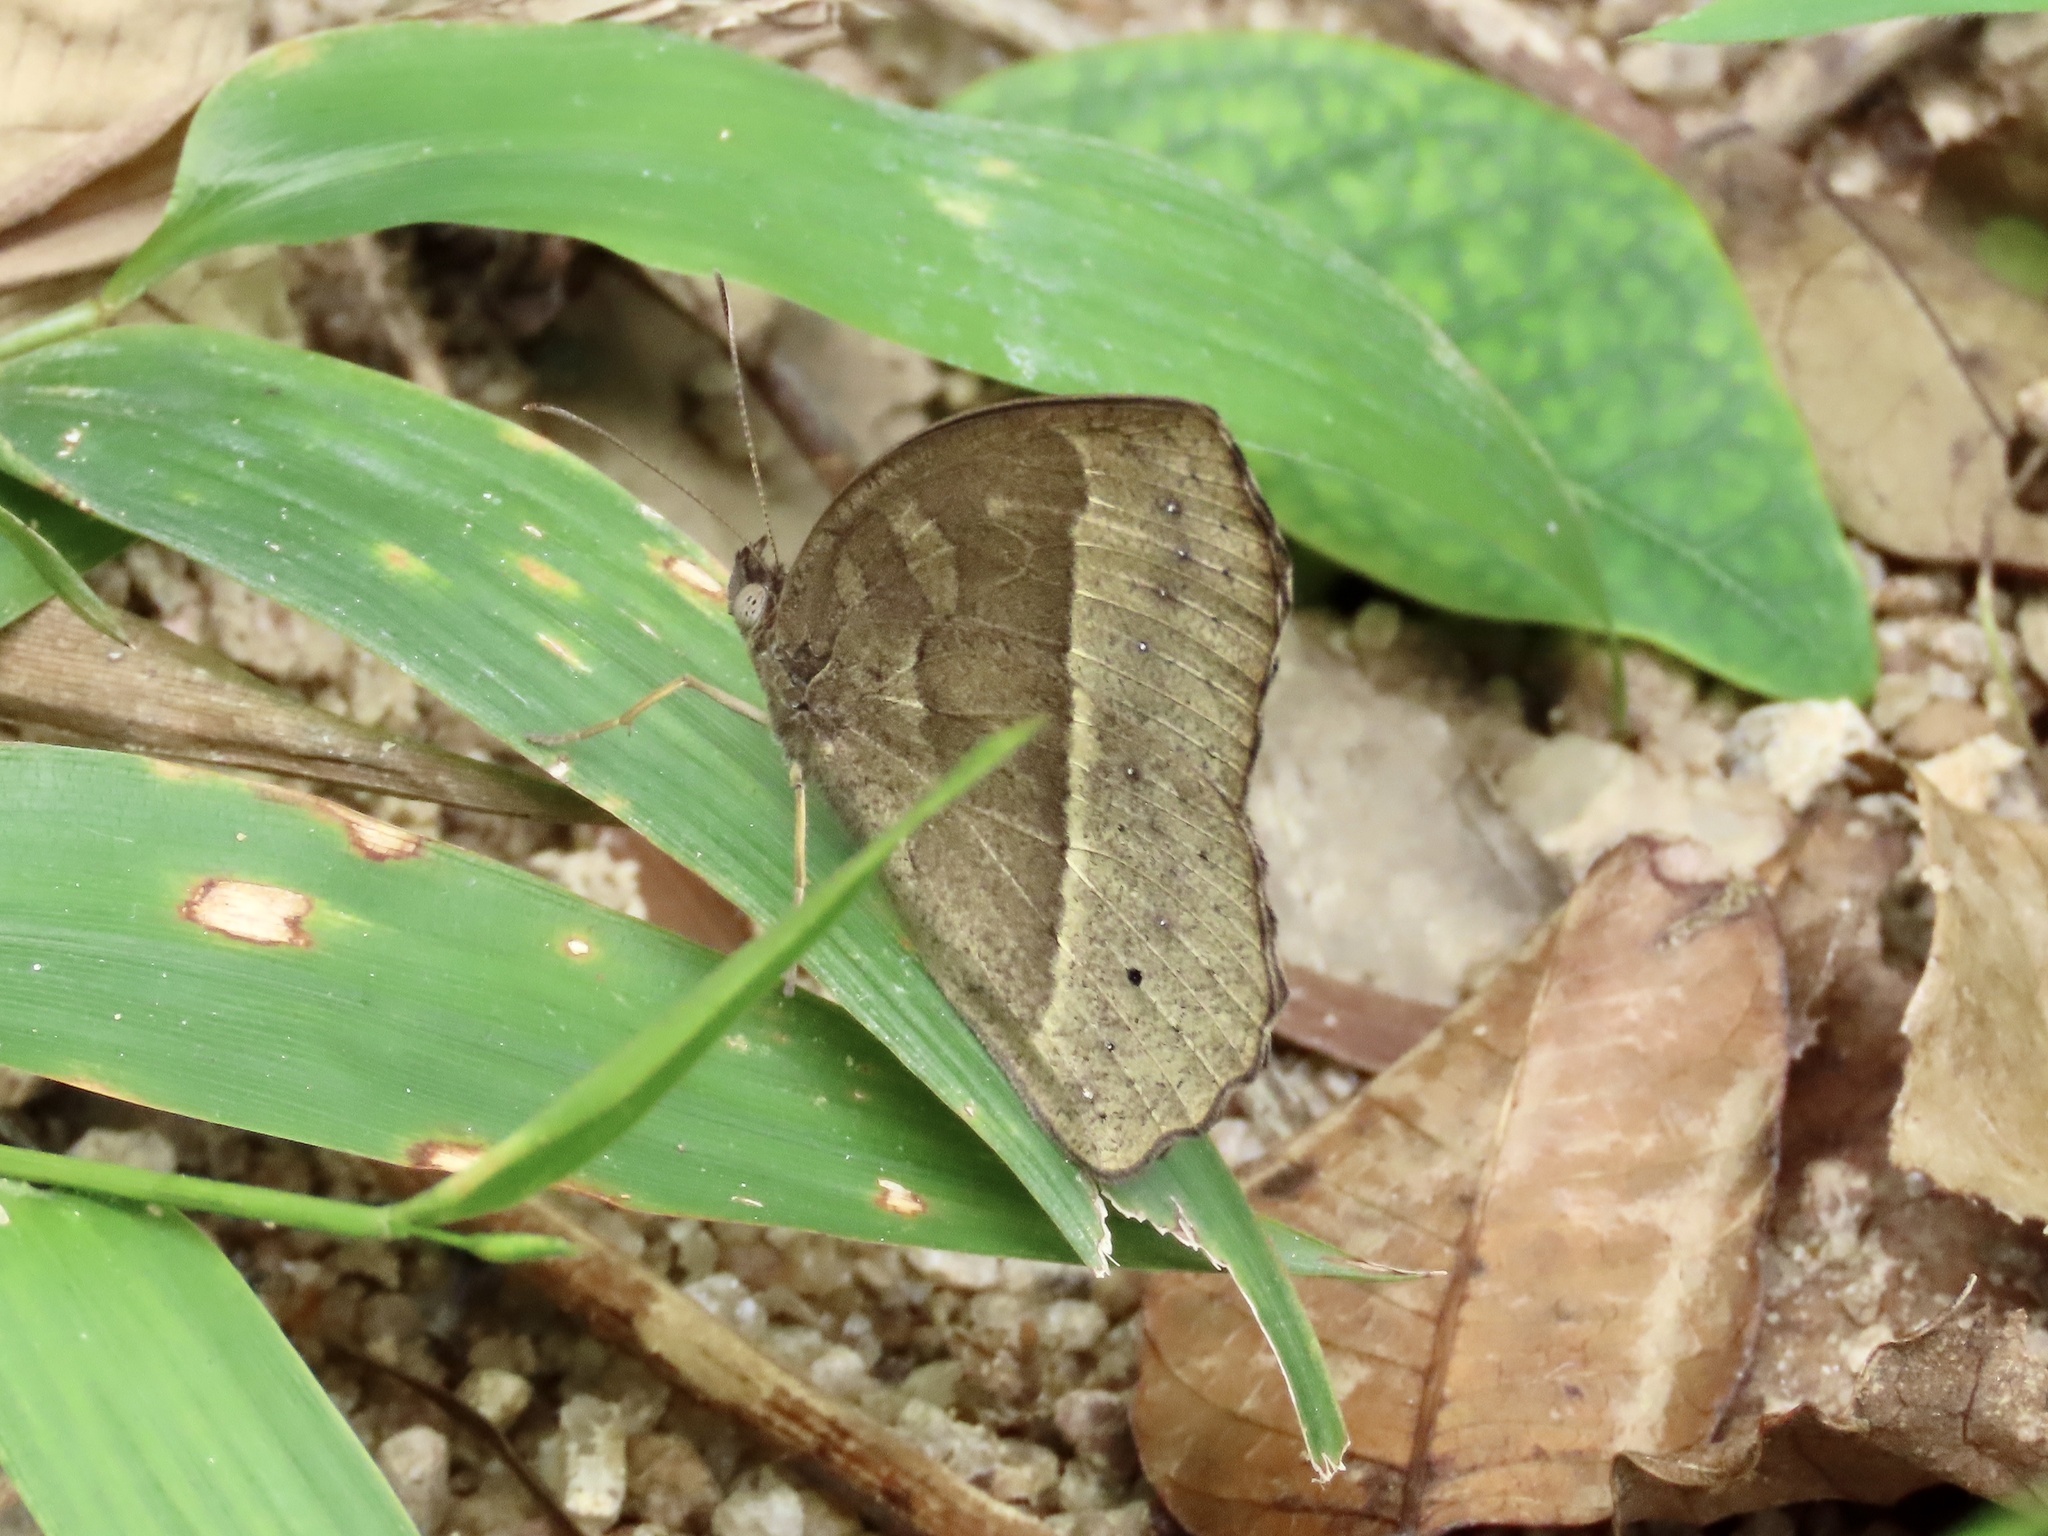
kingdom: Animalia
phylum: Arthropoda
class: Insecta
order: Lepidoptera
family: Nymphalidae
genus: Mycalesis
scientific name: Mycalesis horsfieldii
